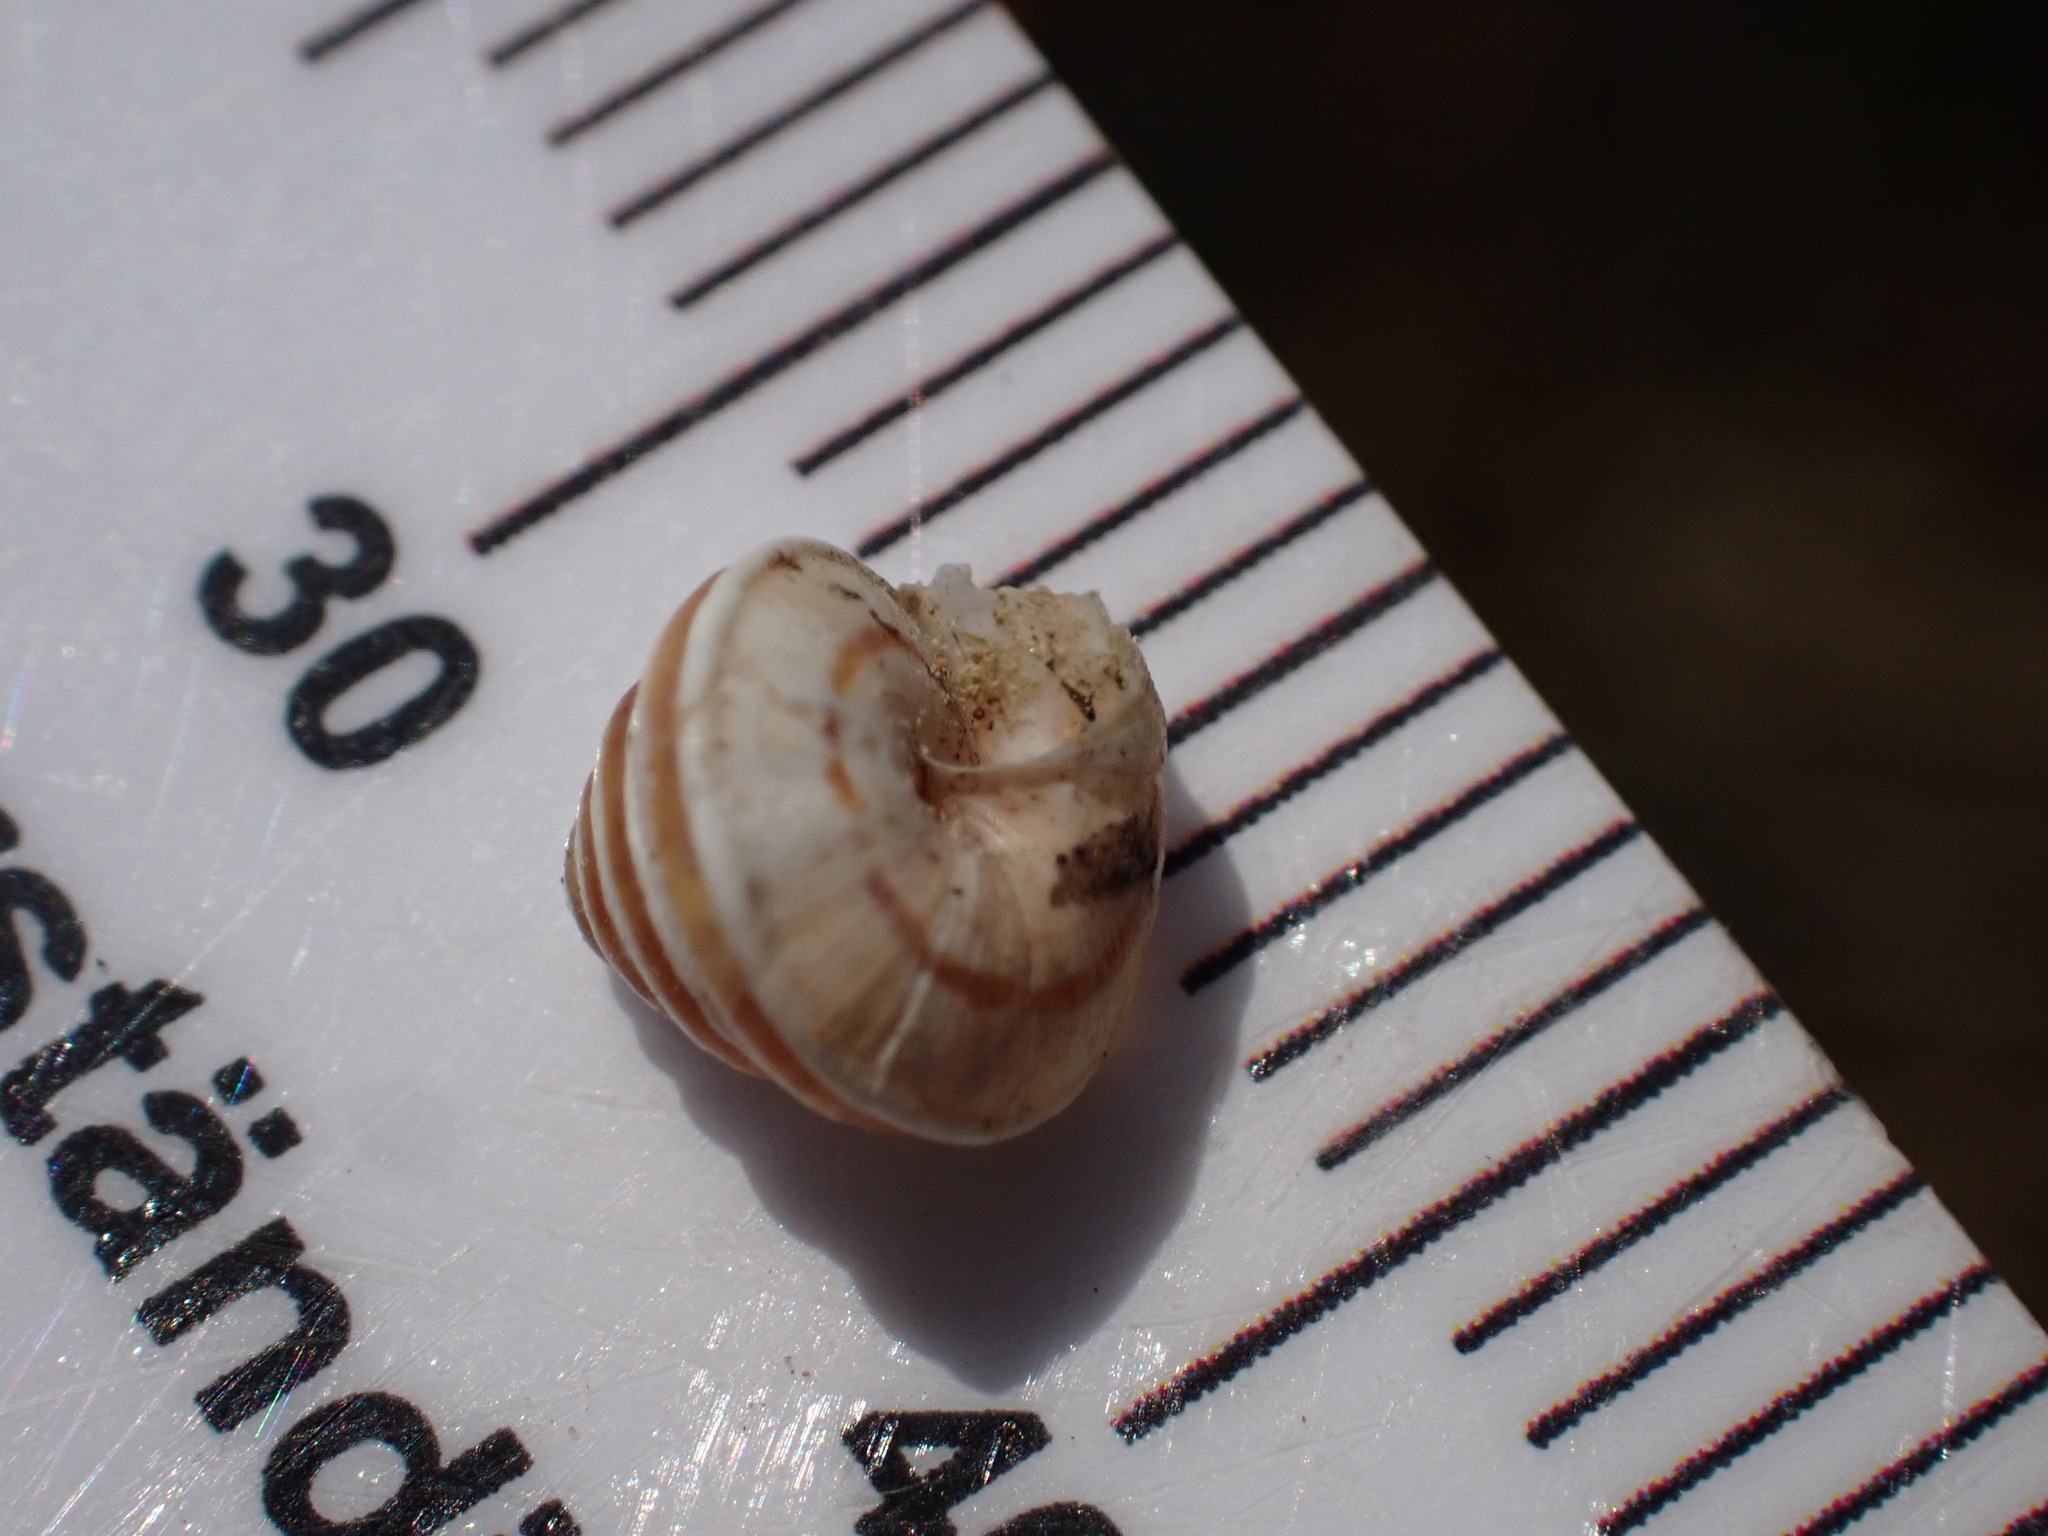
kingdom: Animalia
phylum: Mollusca
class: Gastropoda
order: Stylommatophora
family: Geomitridae
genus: Trochoidea
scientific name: Trochoidea trochoides
